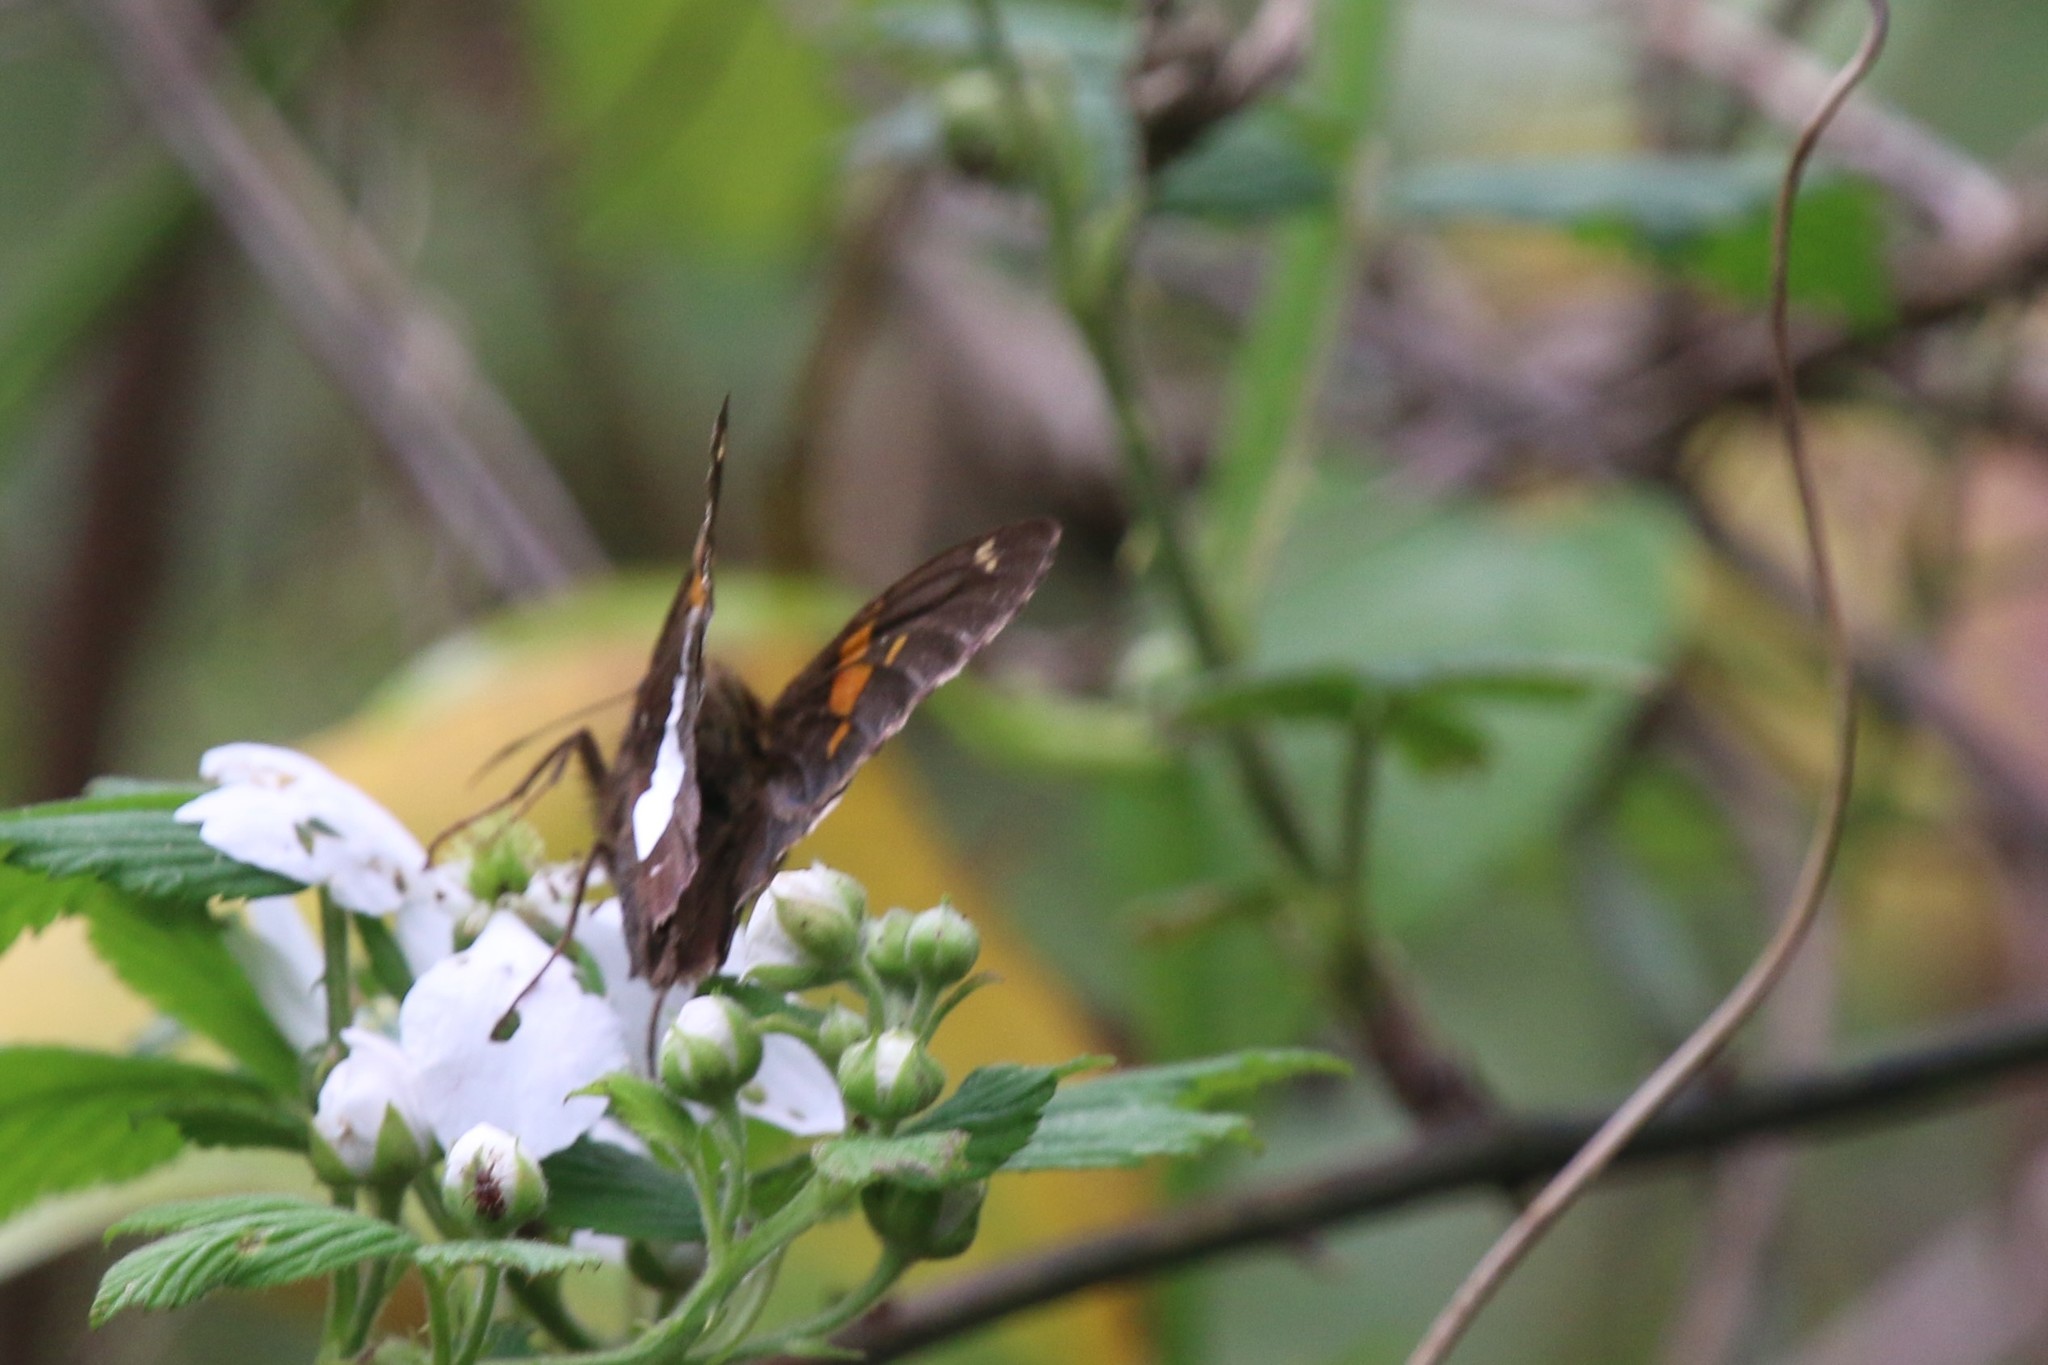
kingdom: Animalia
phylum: Arthropoda
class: Insecta
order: Lepidoptera
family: Hesperiidae
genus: Epargyreus
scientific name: Epargyreus clarus
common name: Silver-spotted skipper
